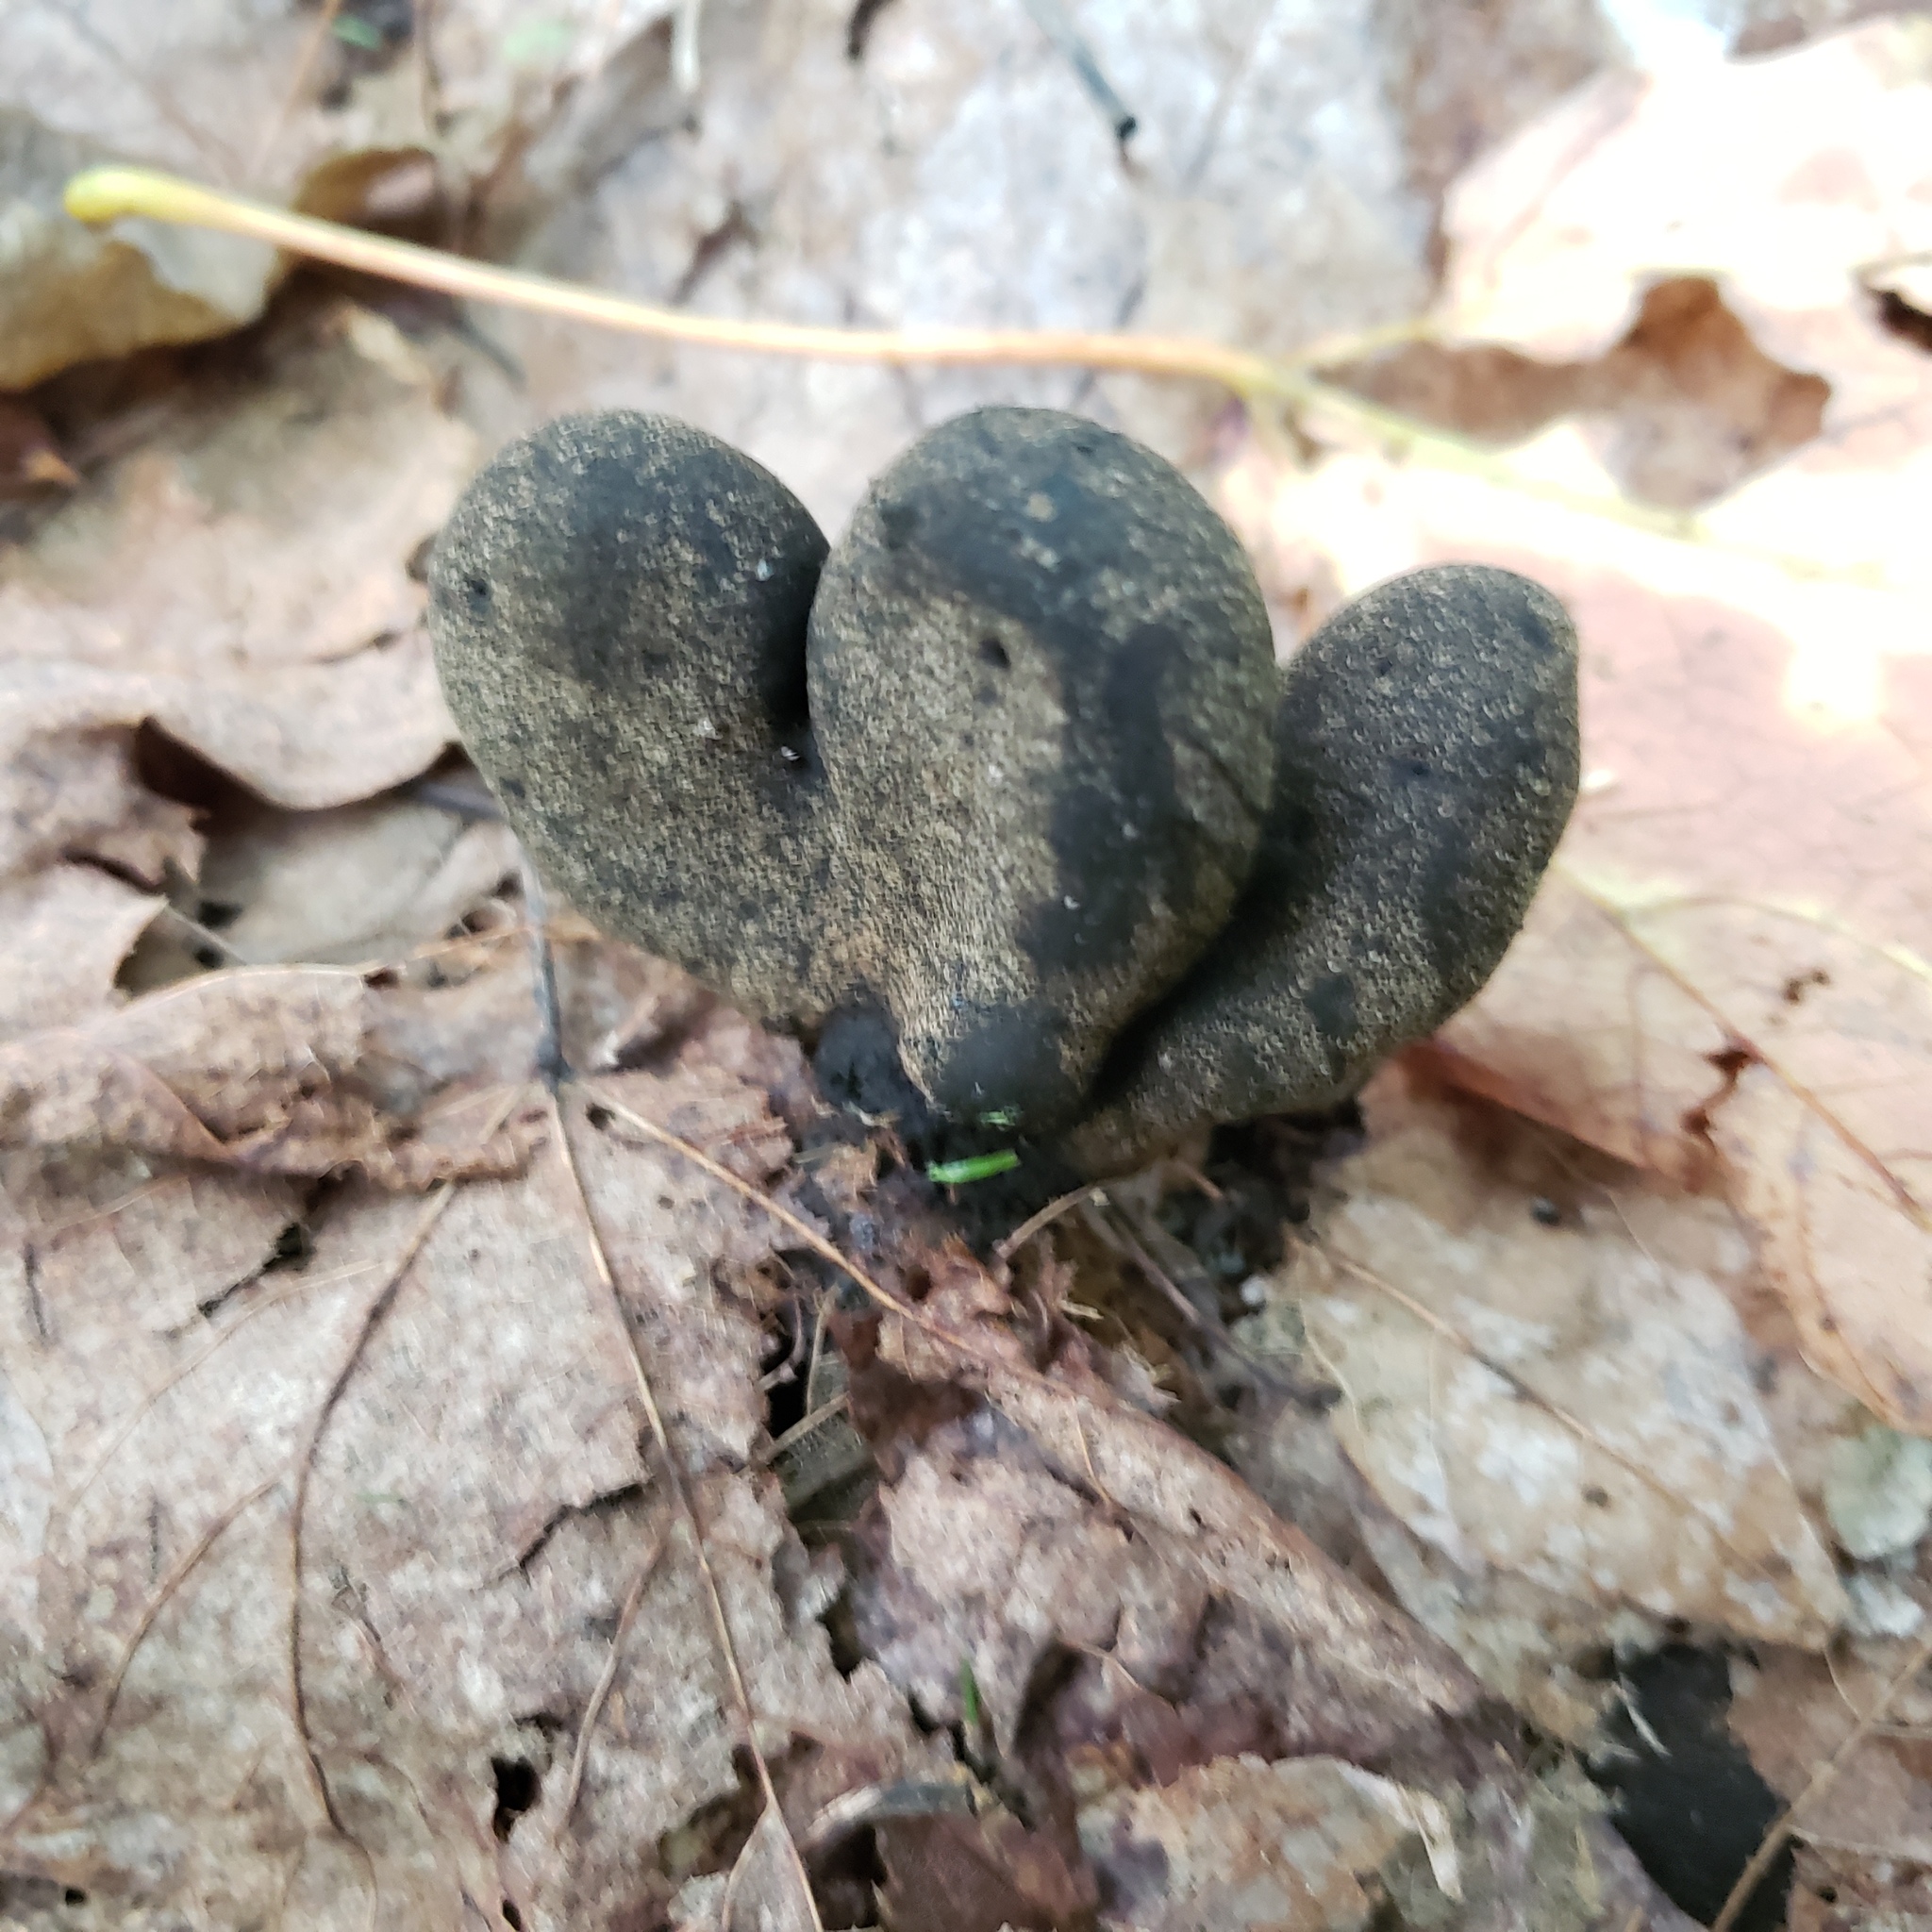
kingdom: Fungi
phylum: Ascomycota
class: Sordariomycetes
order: Xylariales
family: Xylariaceae
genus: Xylaria
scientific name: Xylaria polymorpha
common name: Dead man's fingers
